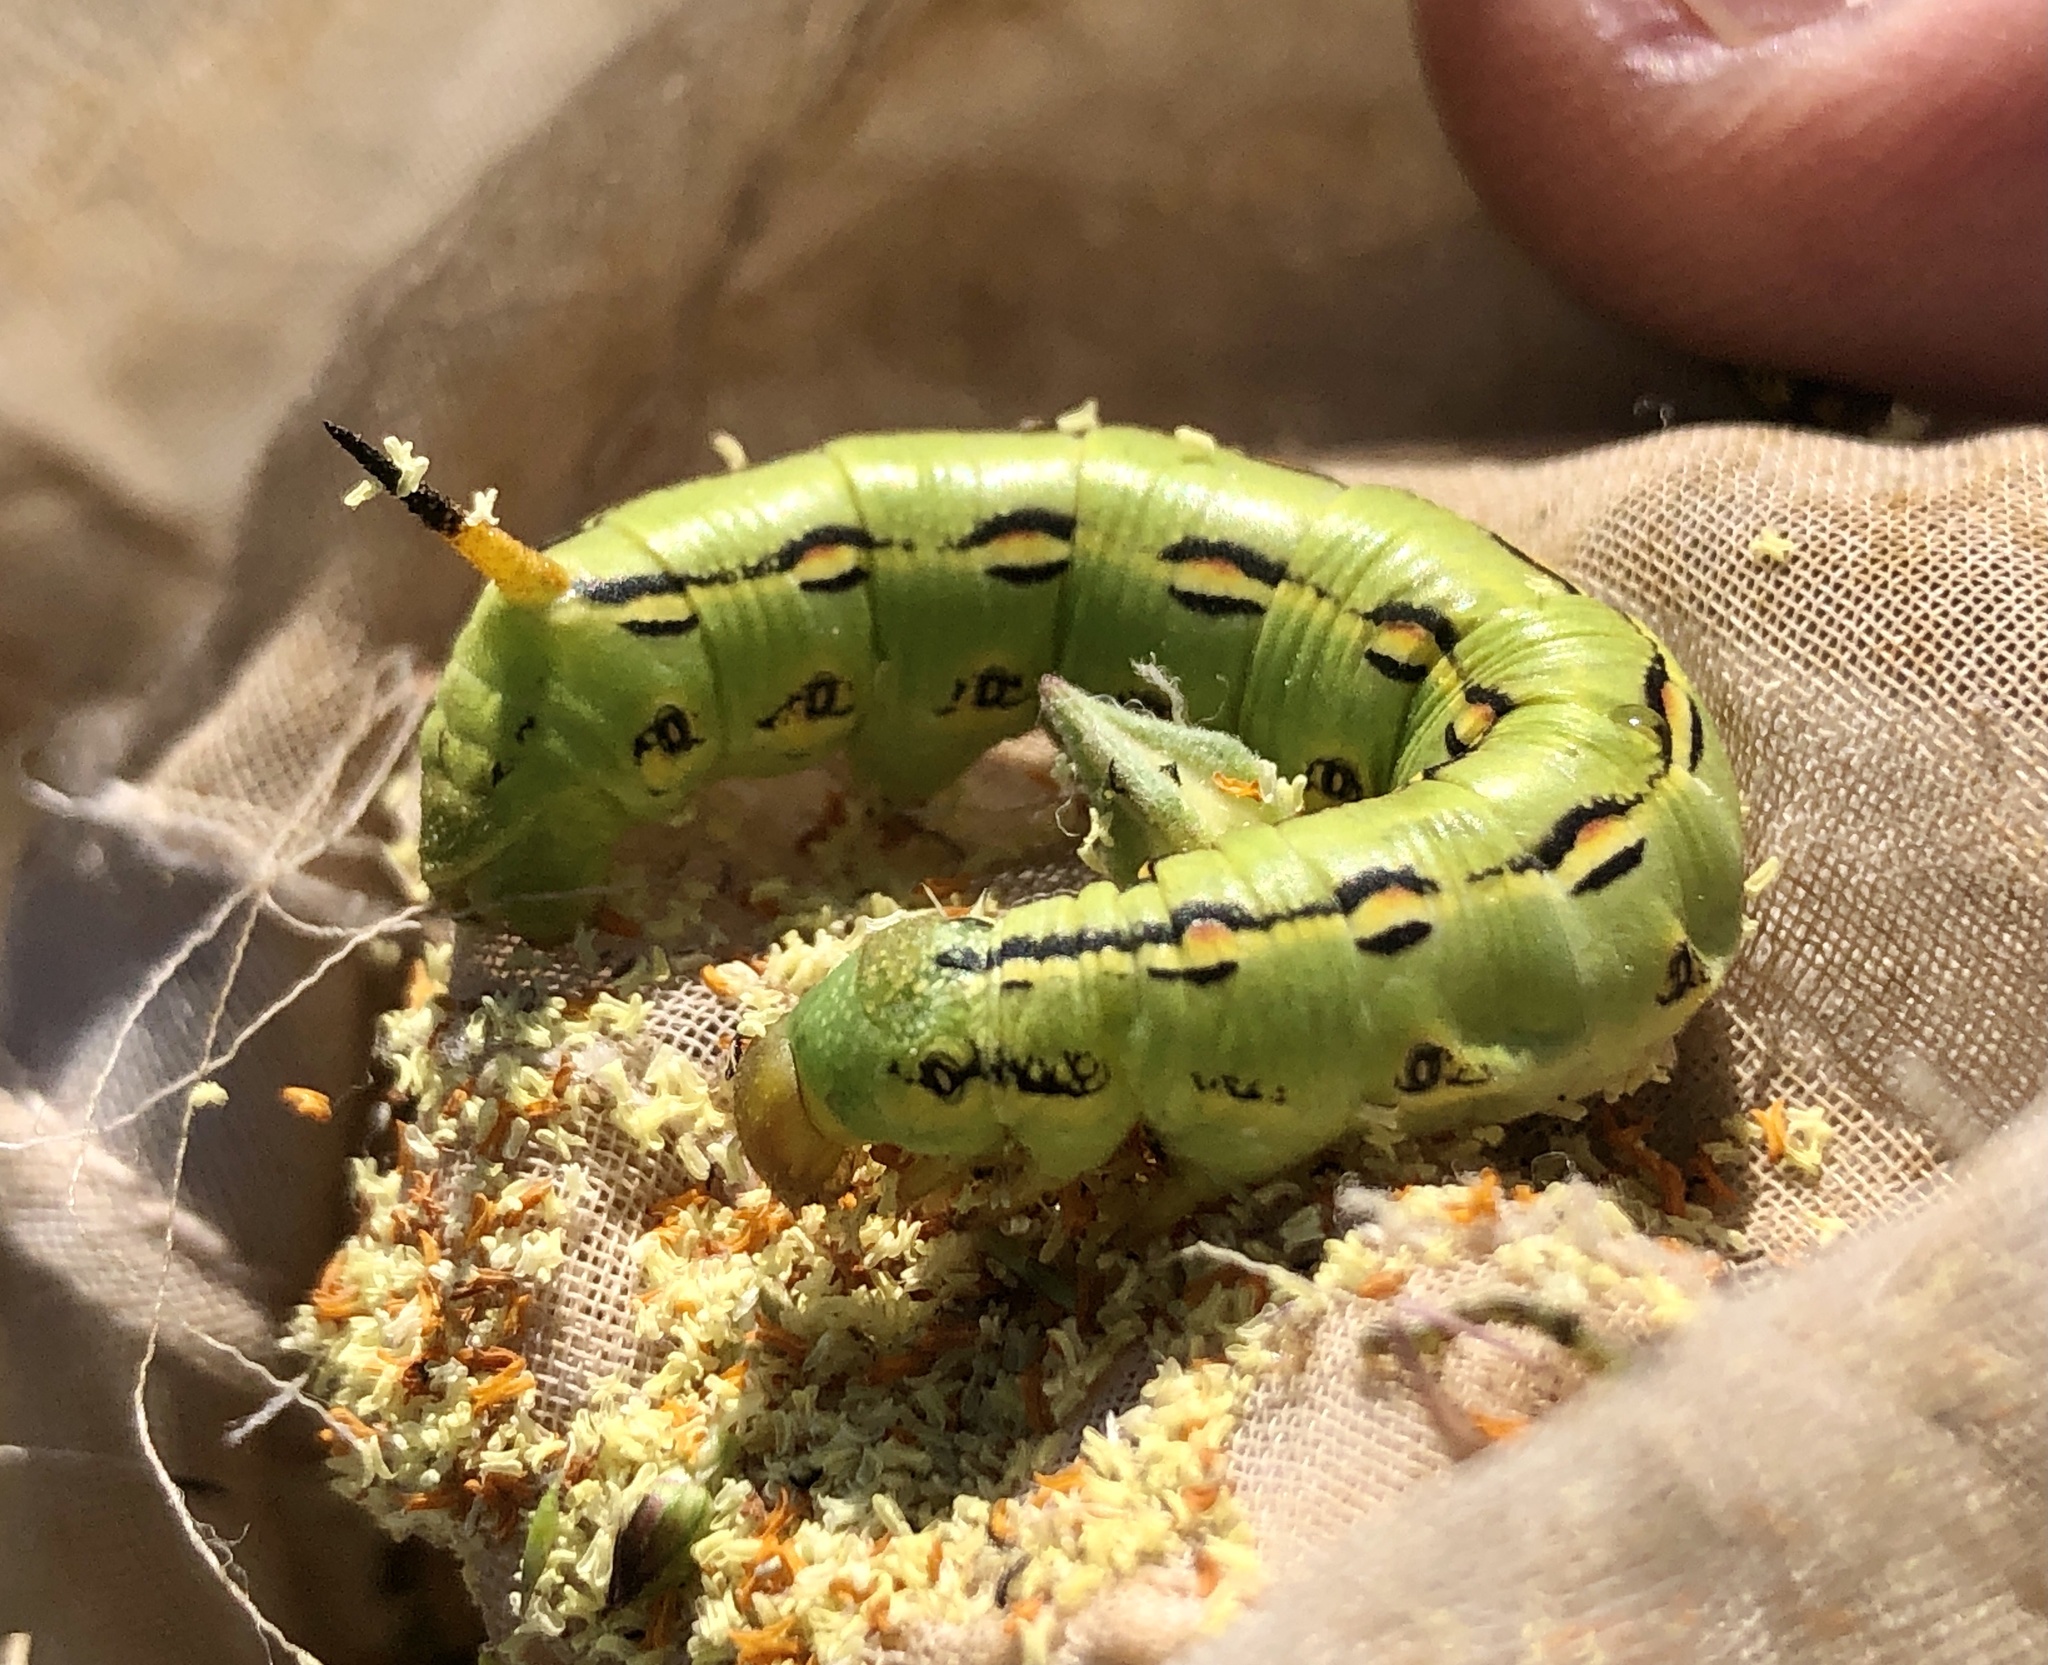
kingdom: Animalia
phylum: Arthropoda
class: Insecta
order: Lepidoptera
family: Sphingidae
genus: Hyles
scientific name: Hyles lineata
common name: White-lined sphinx
